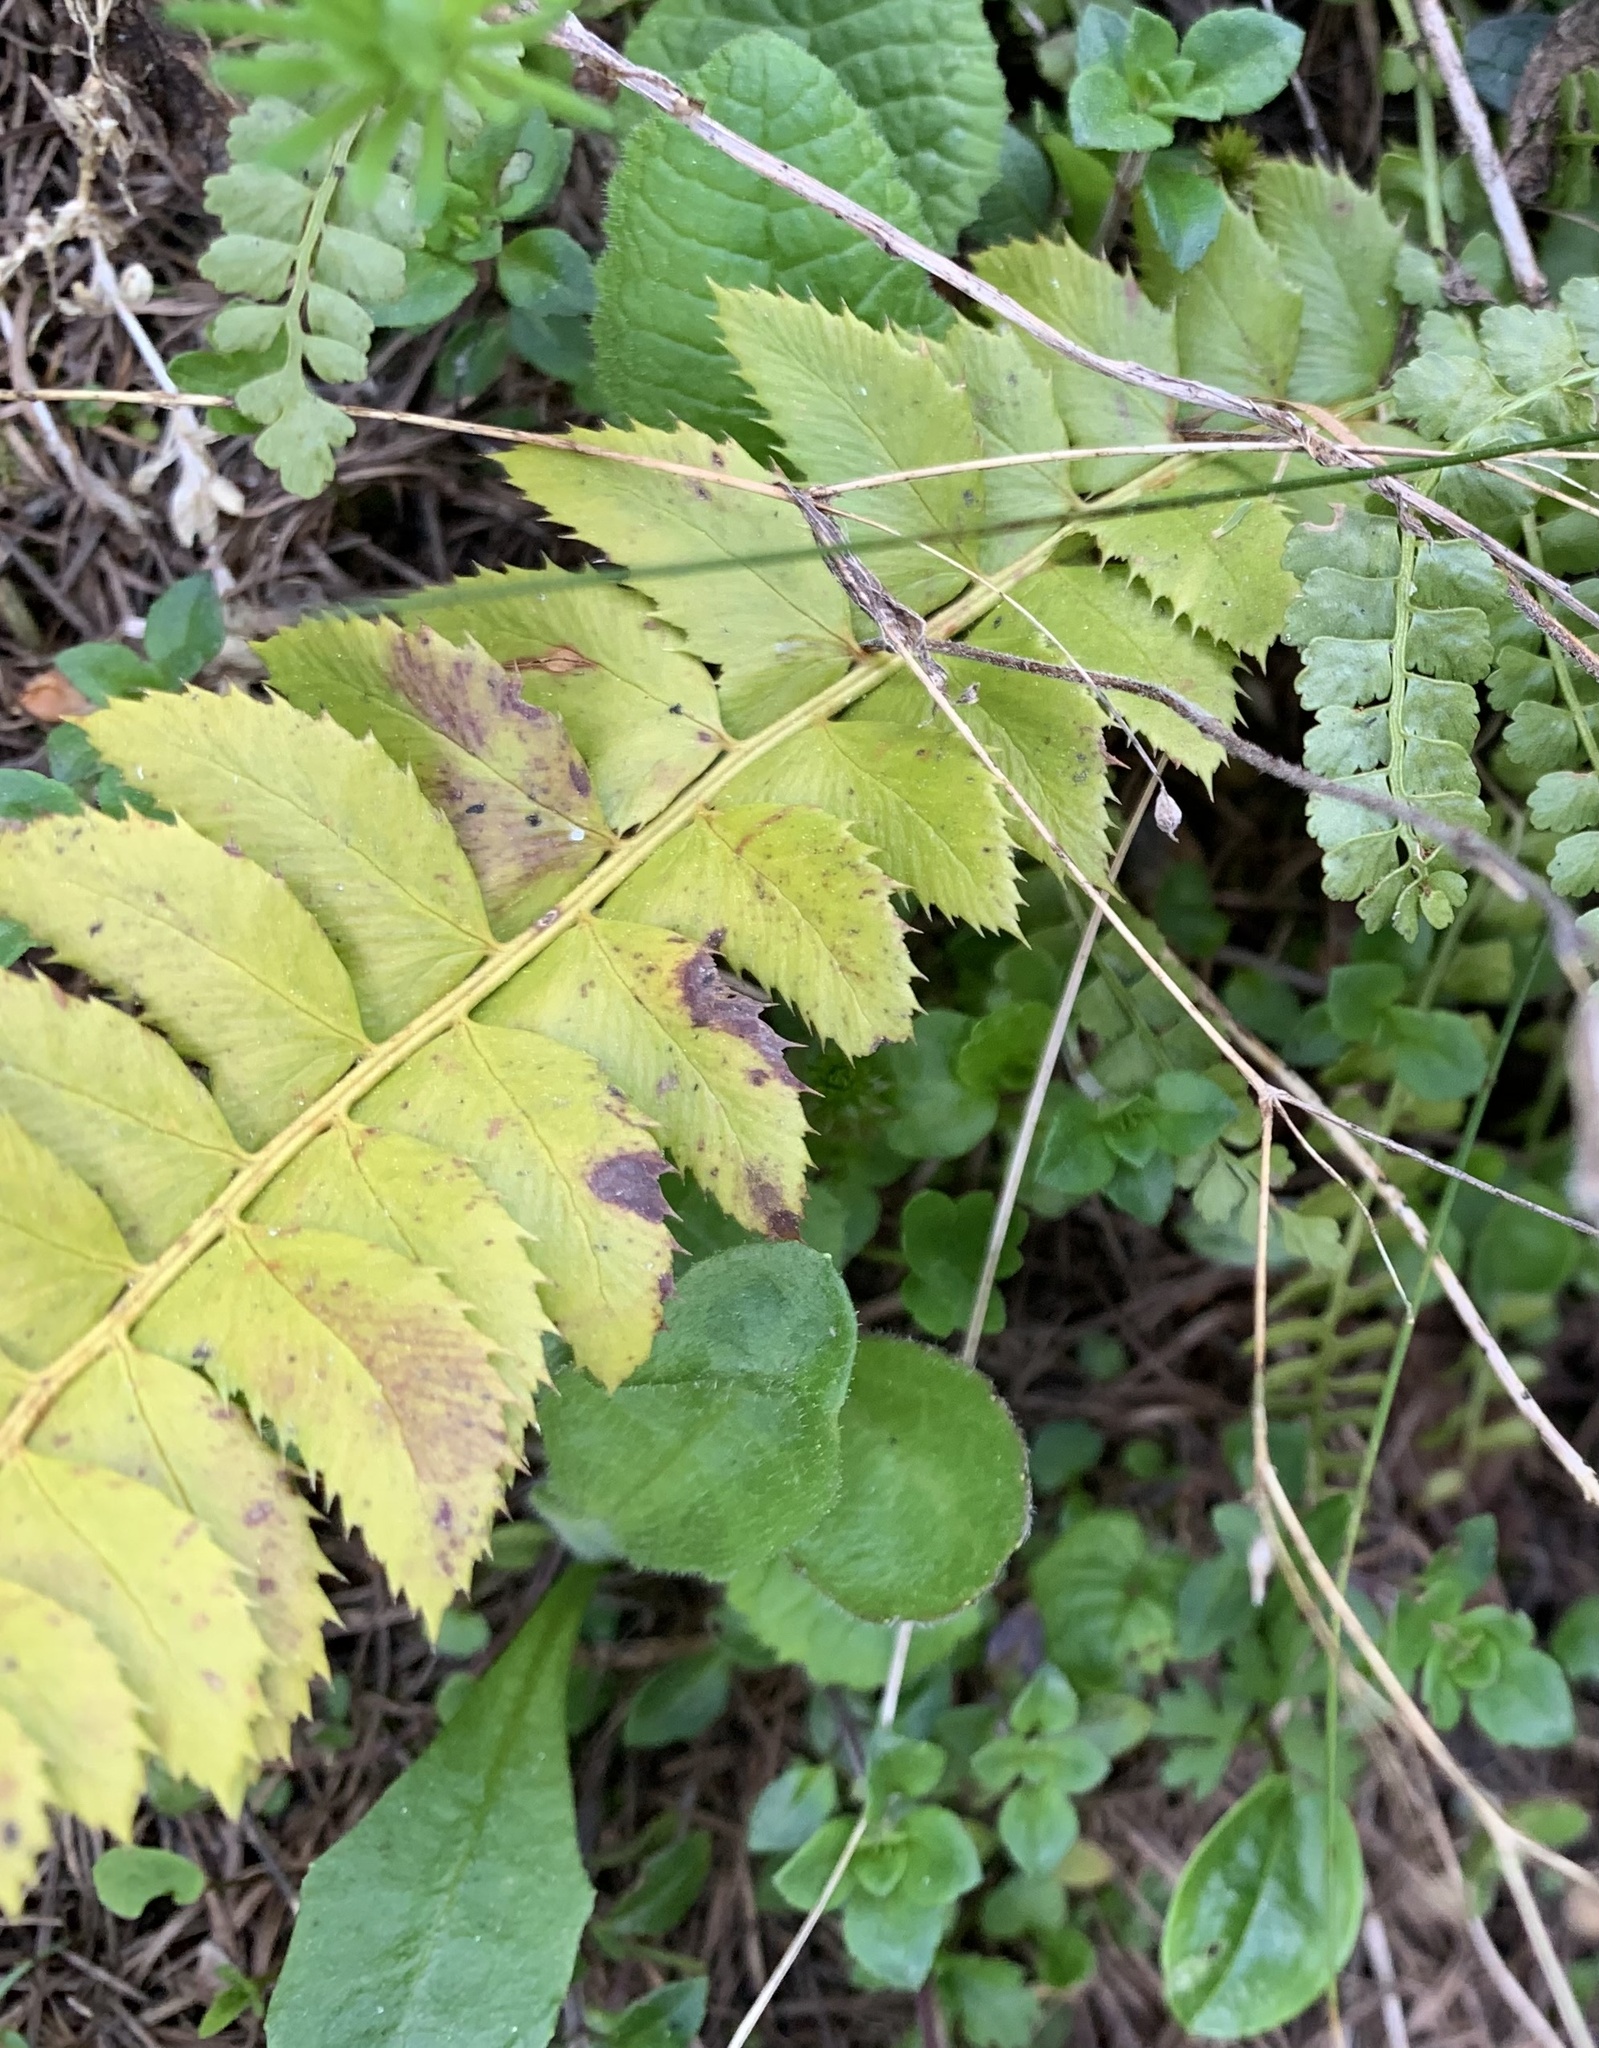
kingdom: Plantae
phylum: Tracheophyta
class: Polypodiopsida
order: Polypodiales
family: Dryopteridaceae
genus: Polystichum
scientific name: Polystichum lonchitis
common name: Holly fern
